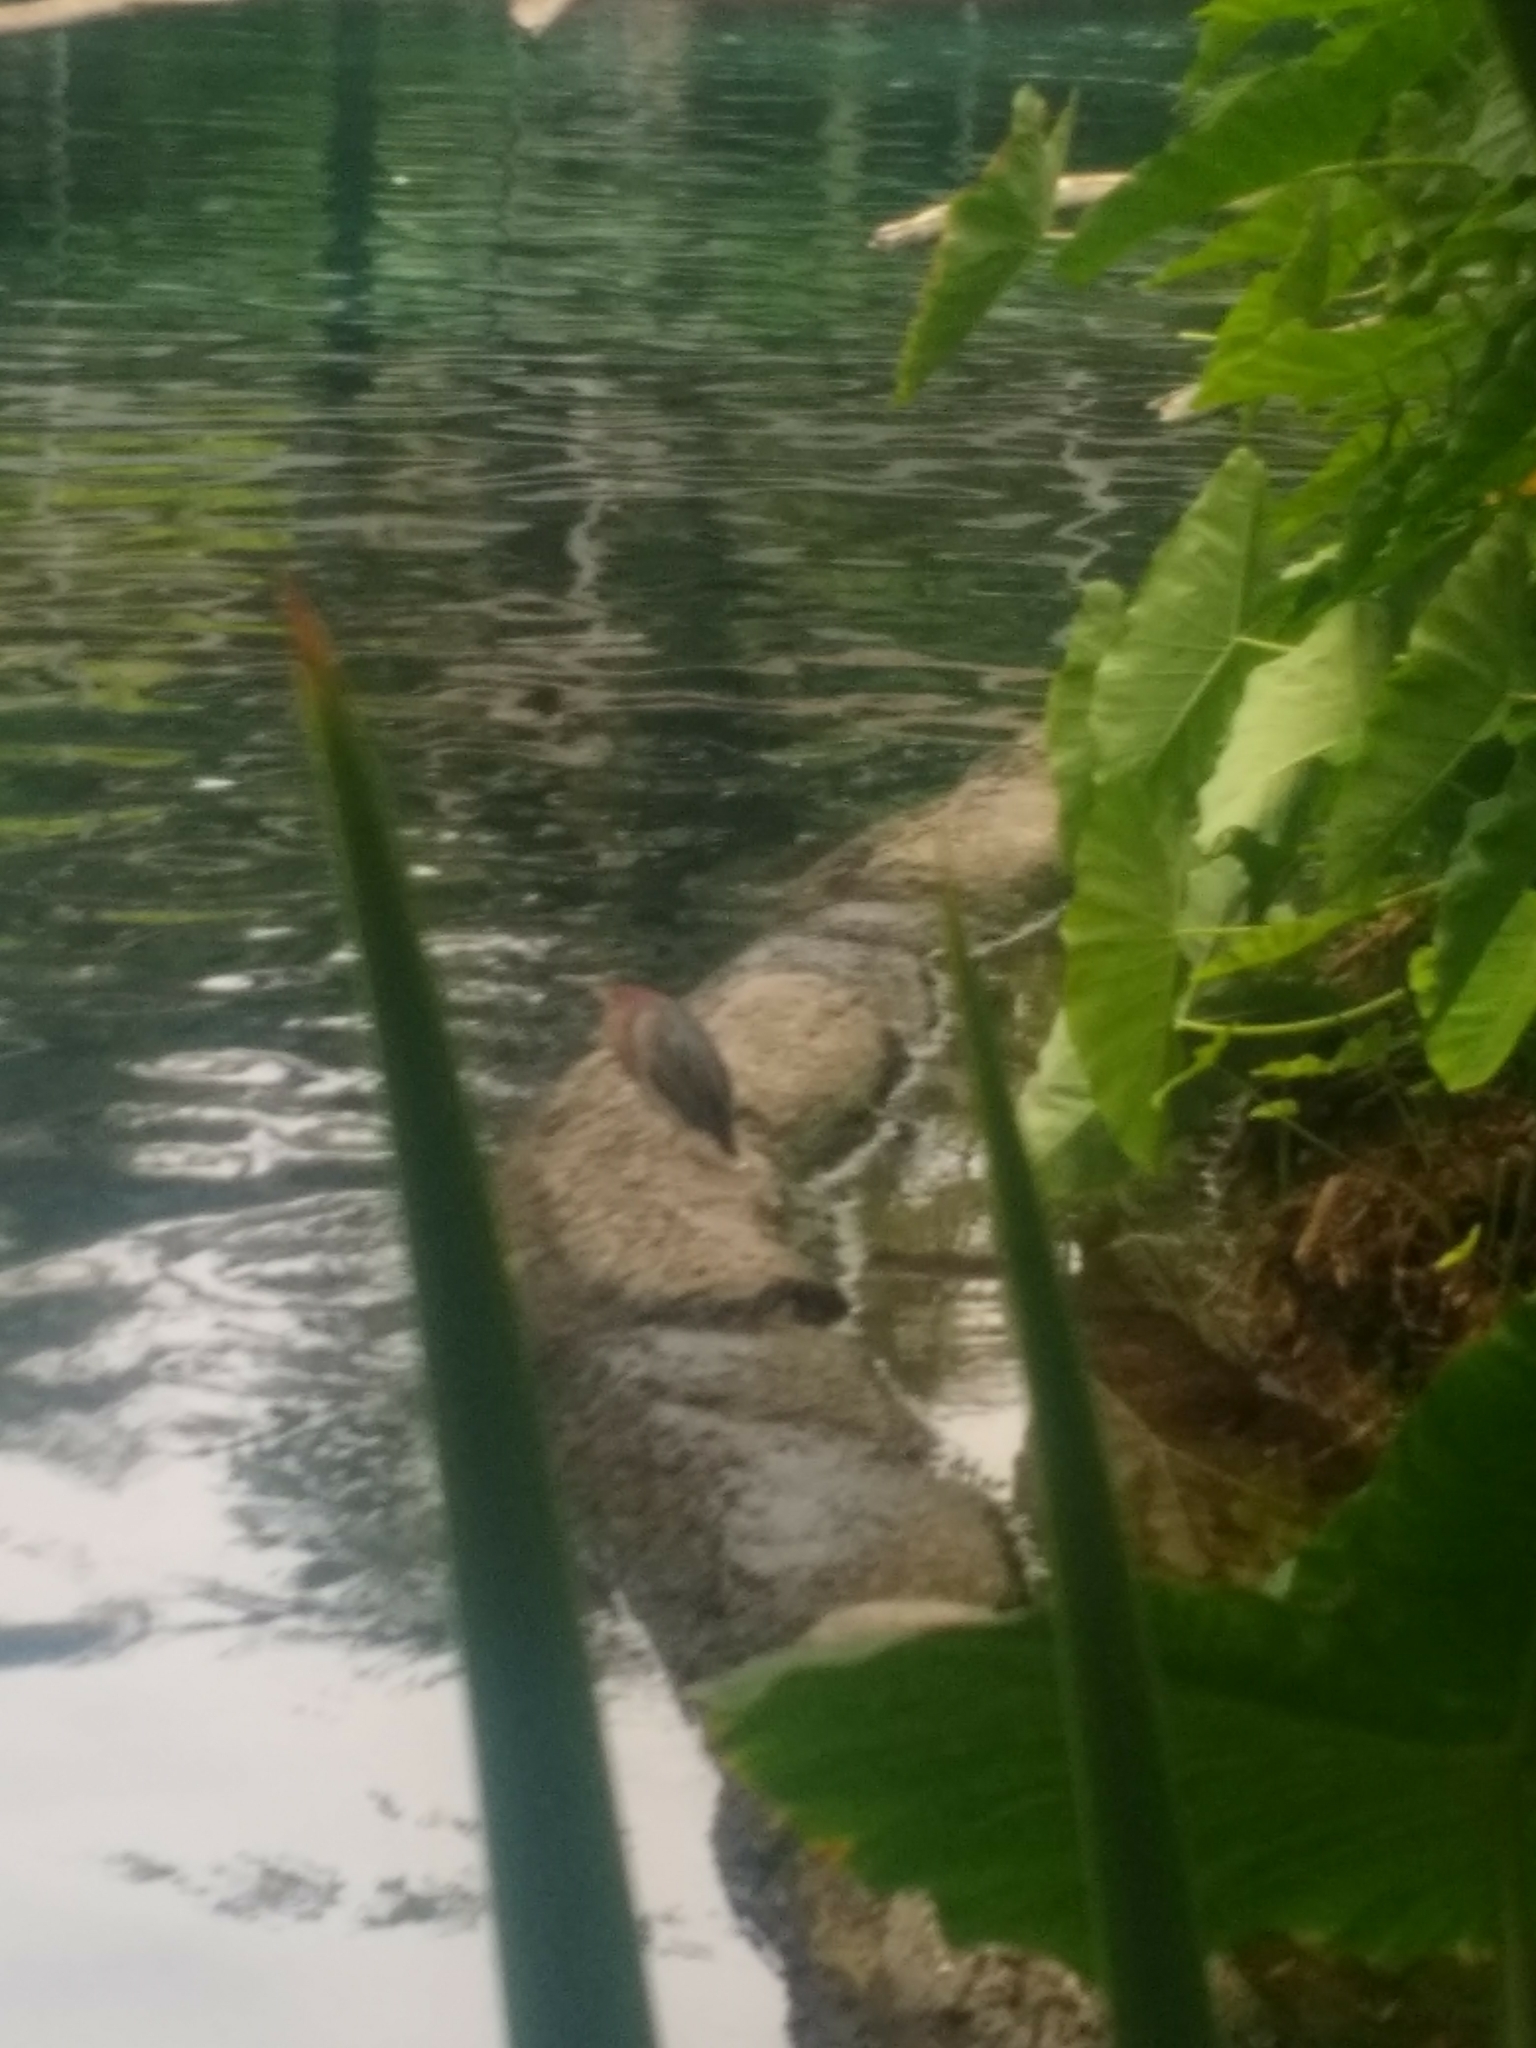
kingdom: Animalia
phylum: Chordata
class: Aves
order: Pelecaniformes
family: Ardeidae
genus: Butorides
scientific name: Butorides virescens
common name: Green heron
